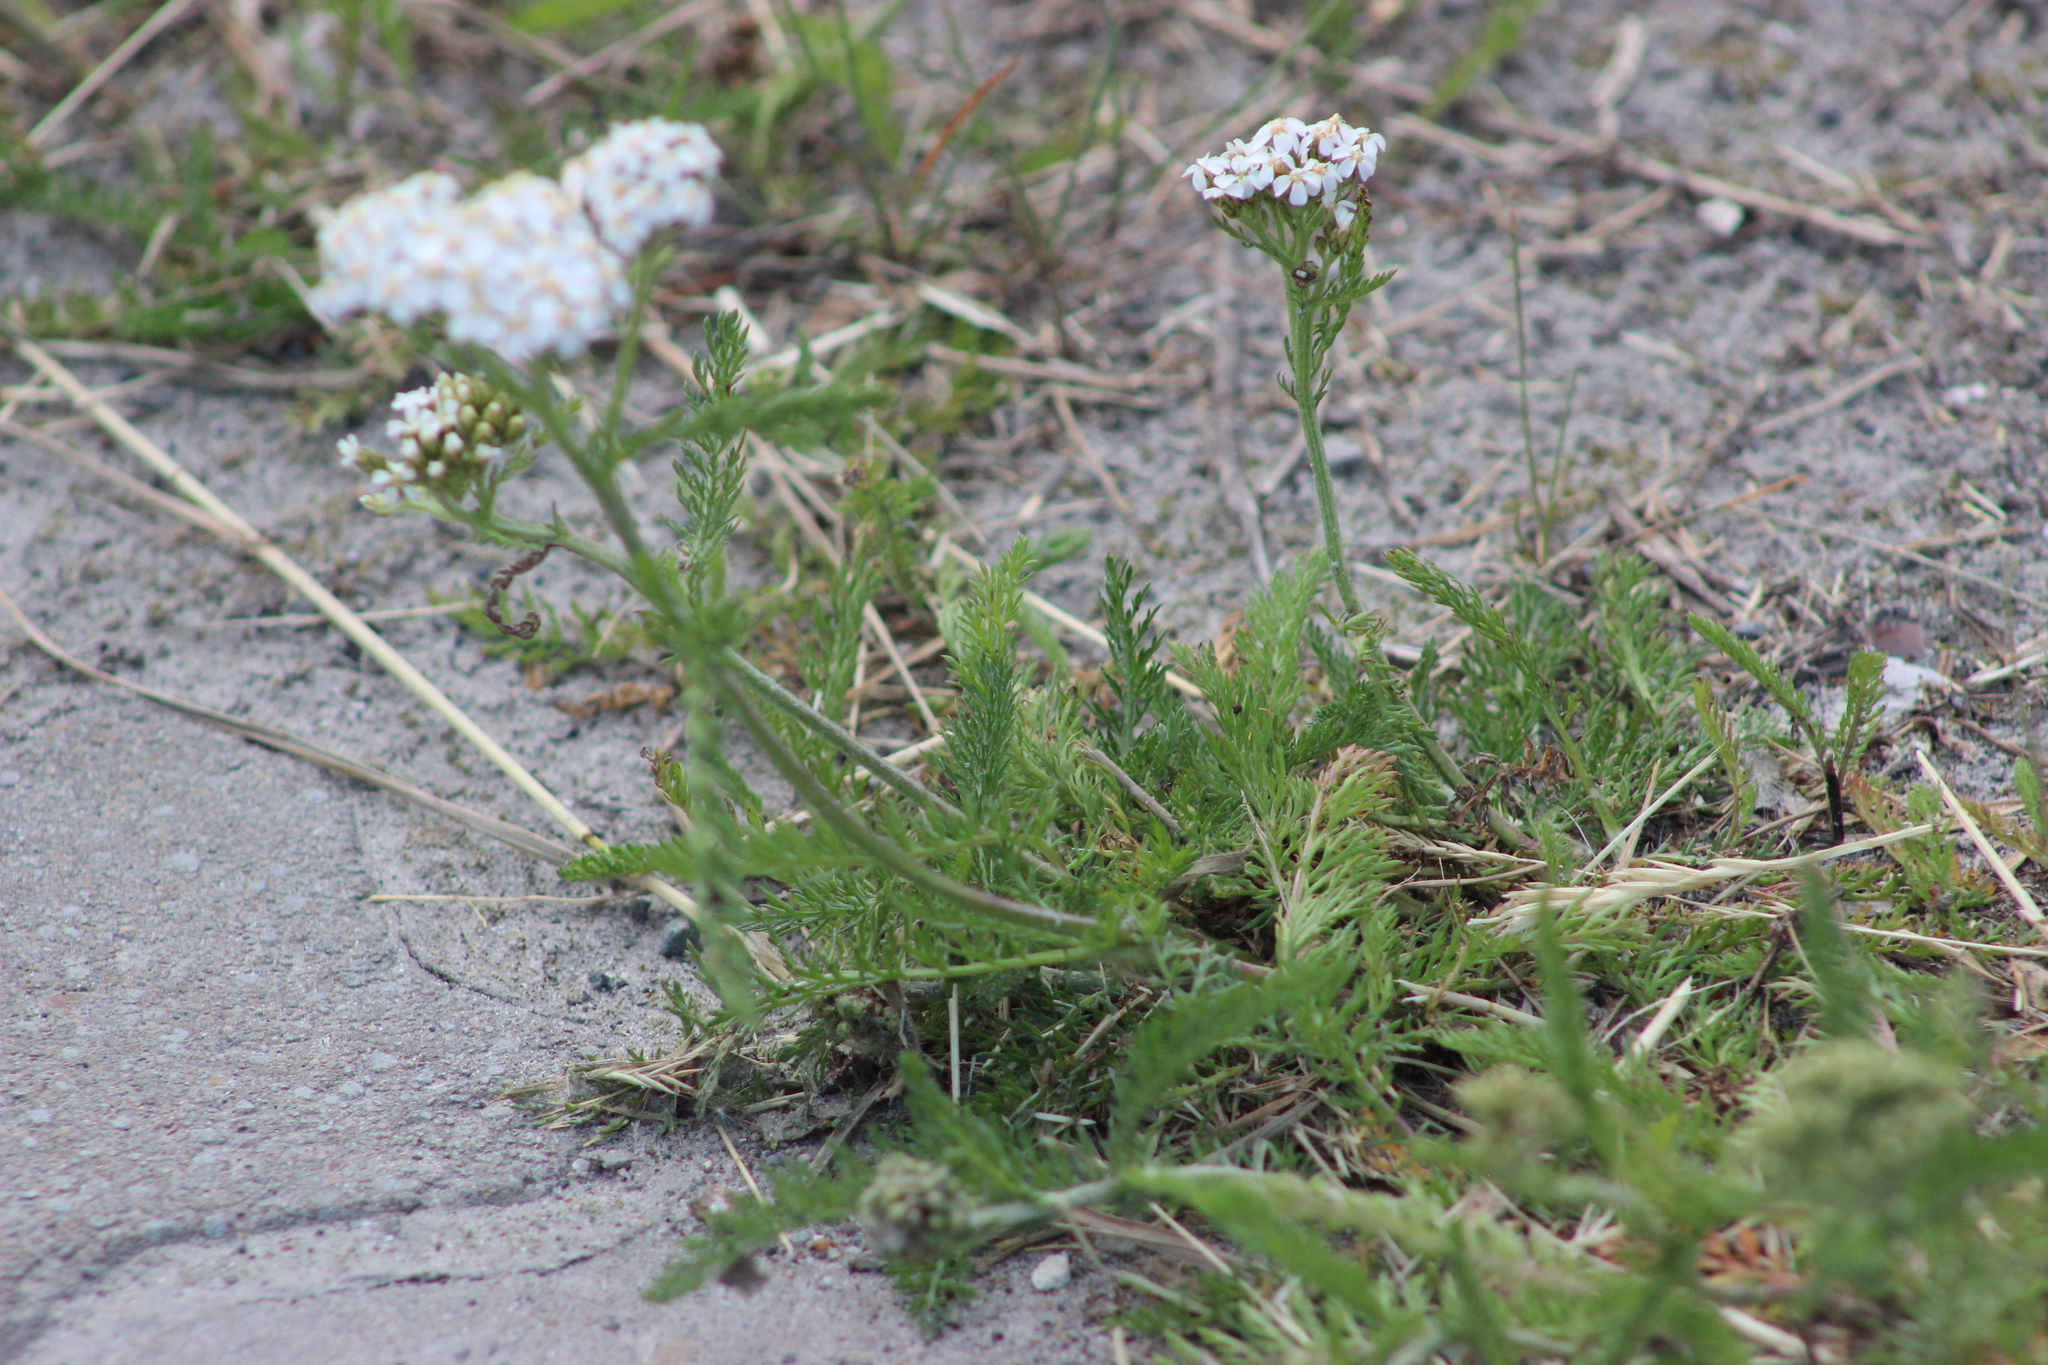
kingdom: Plantae
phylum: Tracheophyta
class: Magnoliopsida
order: Asterales
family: Asteraceae
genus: Achillea
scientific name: Achillea millefolium
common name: Yarrow
